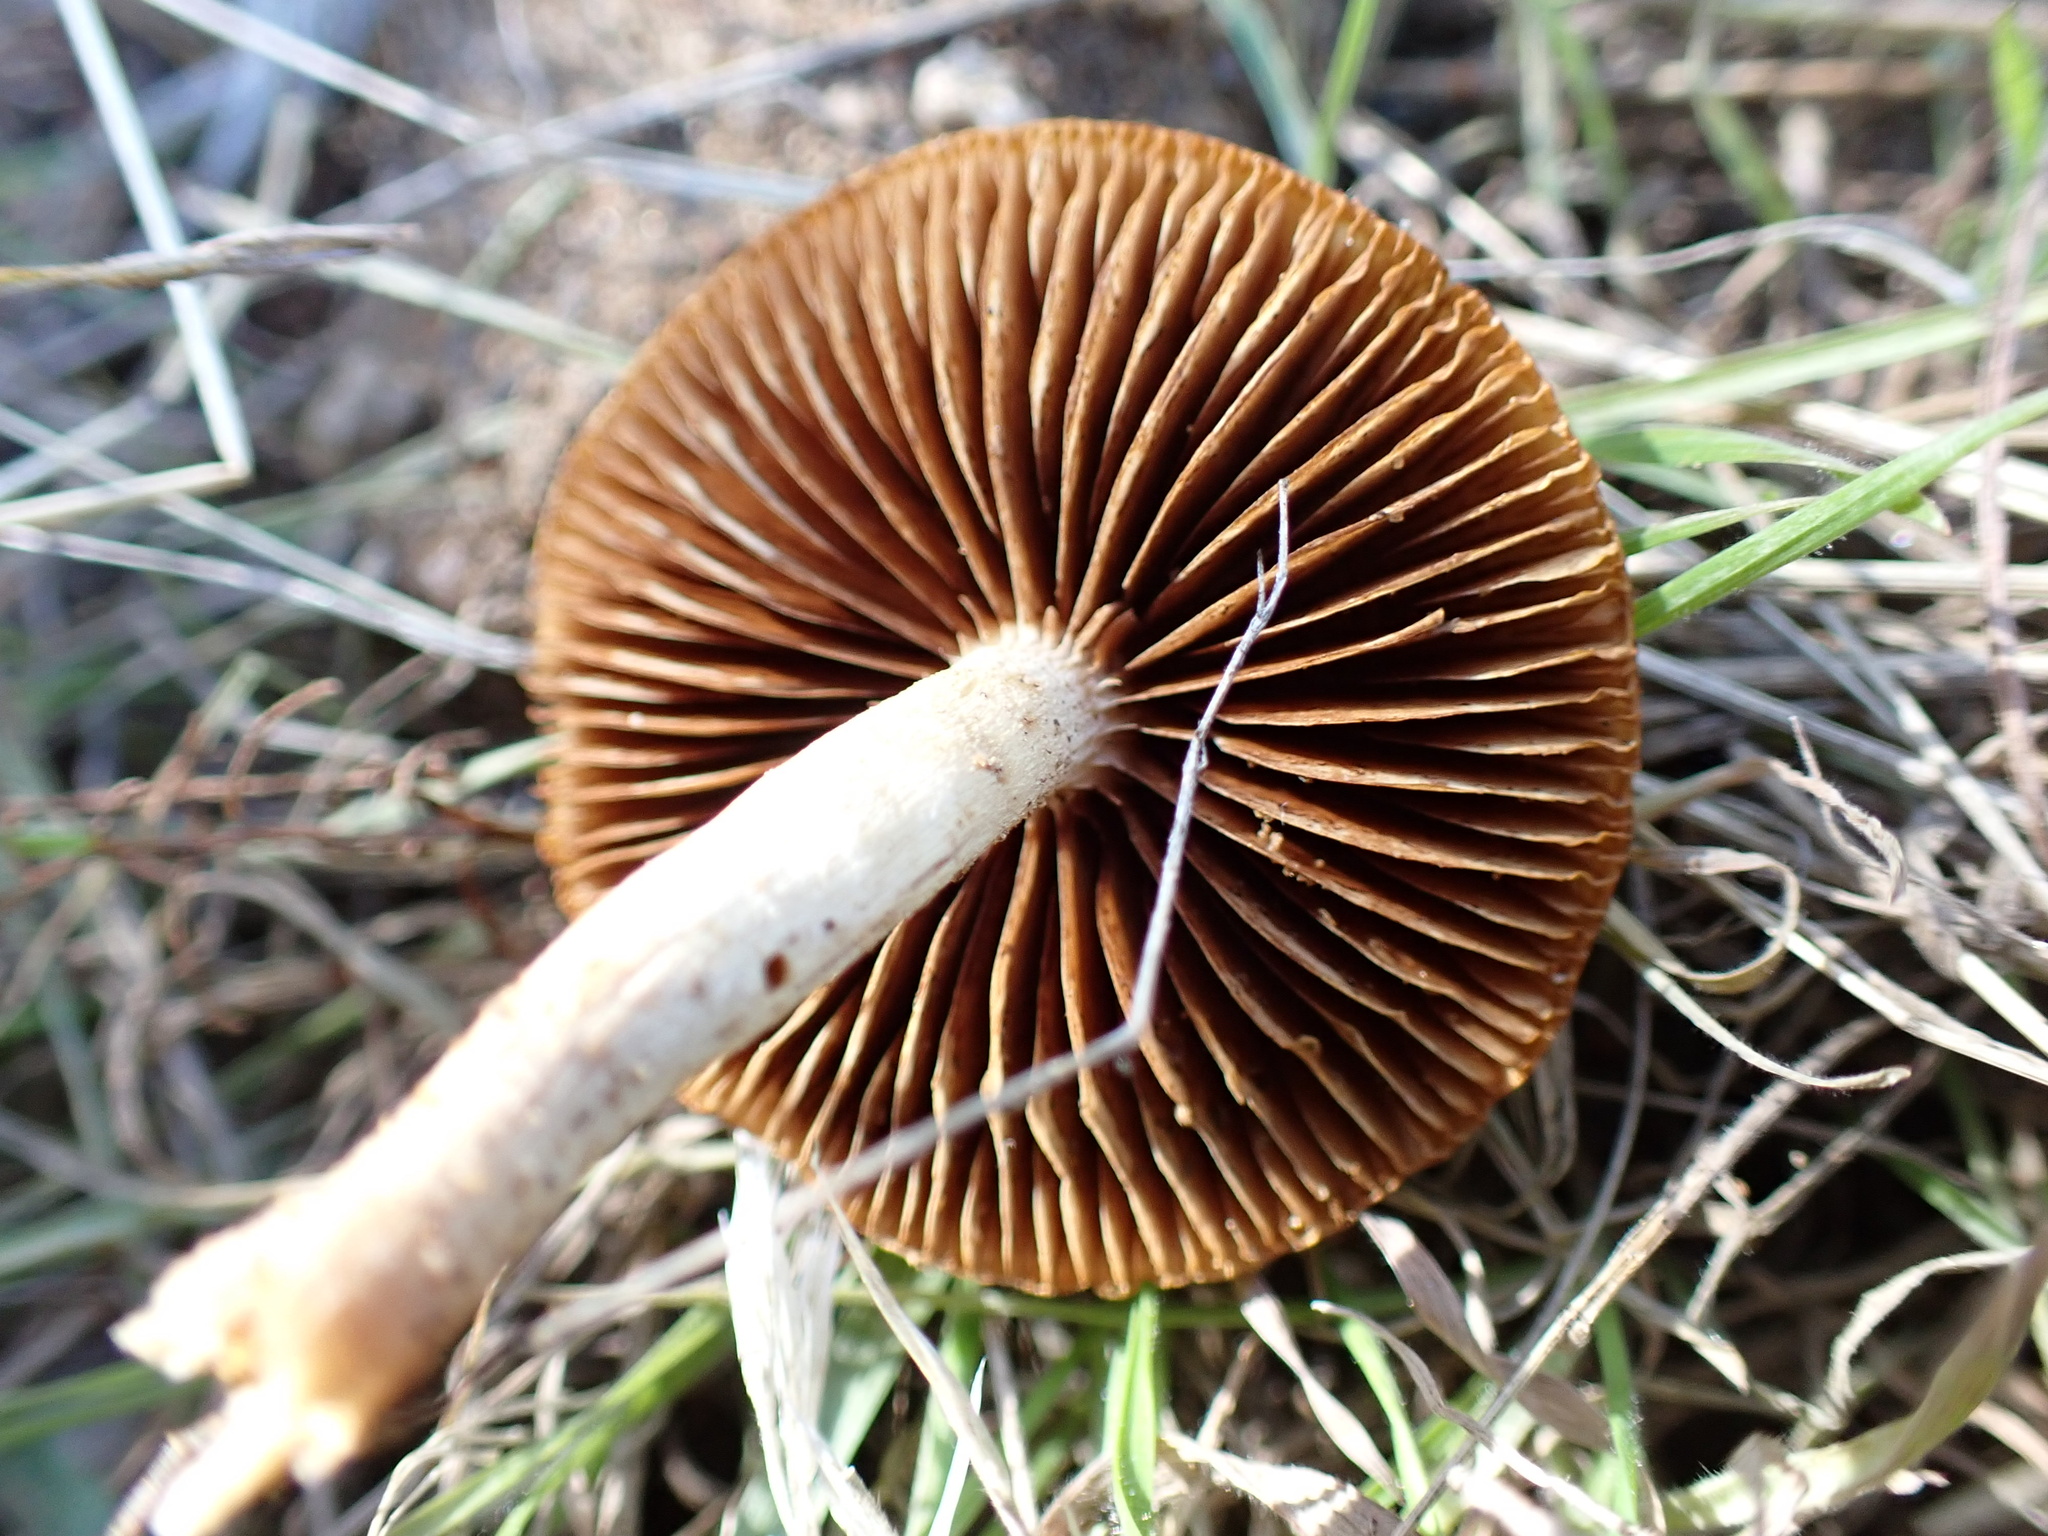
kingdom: Fungi
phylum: Basidiomycota
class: Agaricomycetes
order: Agaricales
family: Strophariaceae
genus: Agrocybe
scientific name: Agrocybe pediades
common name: Common fieldcap
